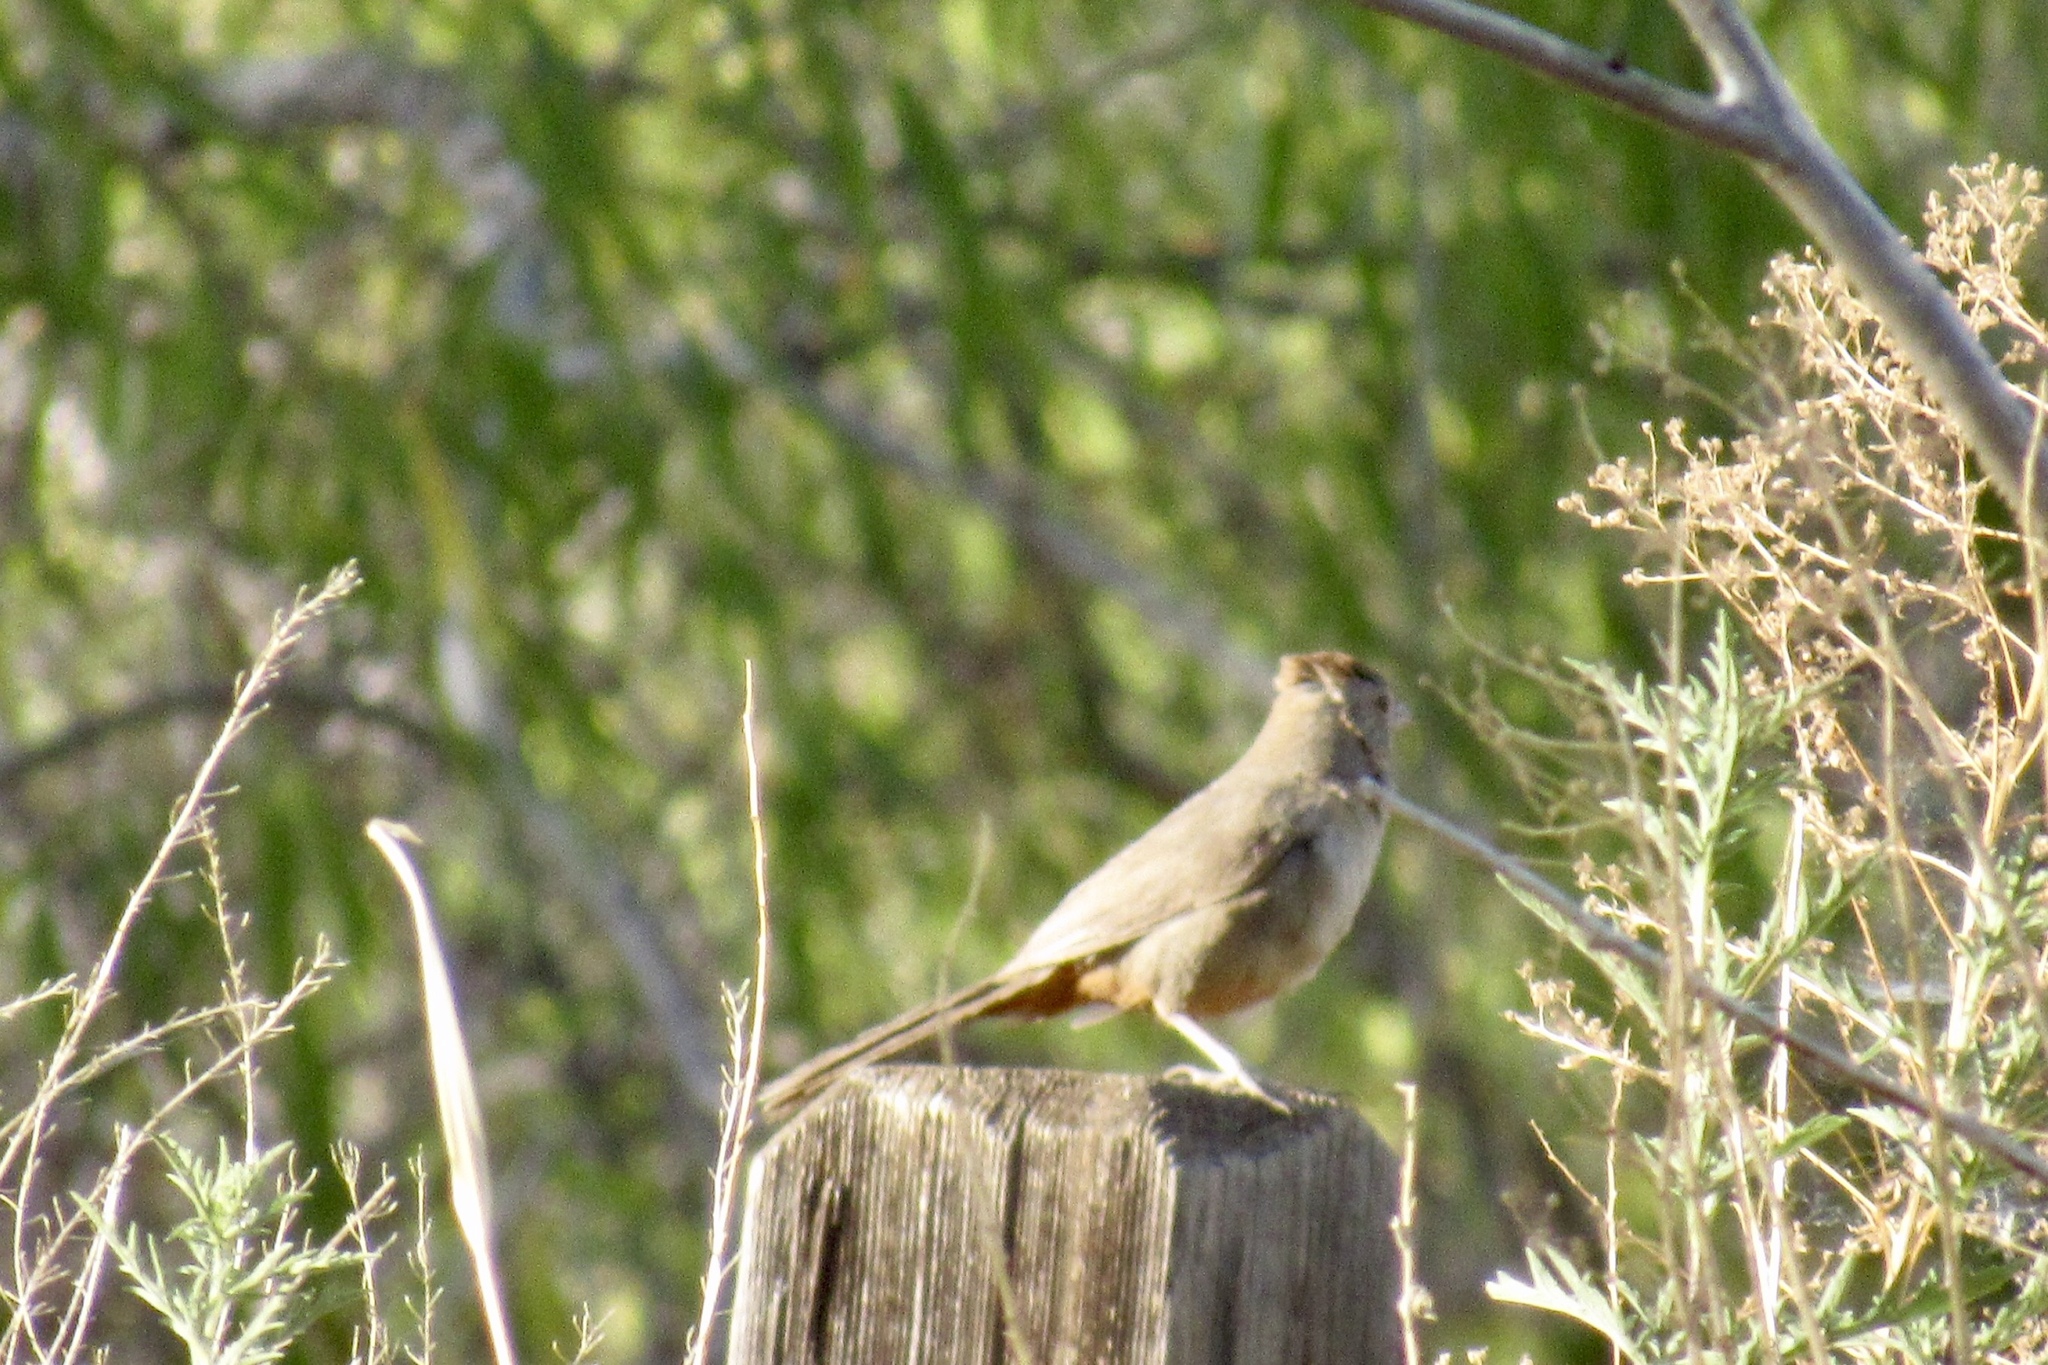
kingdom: Animalia
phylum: Chordata
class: Aves
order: Passeriformes
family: Passerellidae
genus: Melozone
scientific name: Melozone fusca
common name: Canyon towhee
